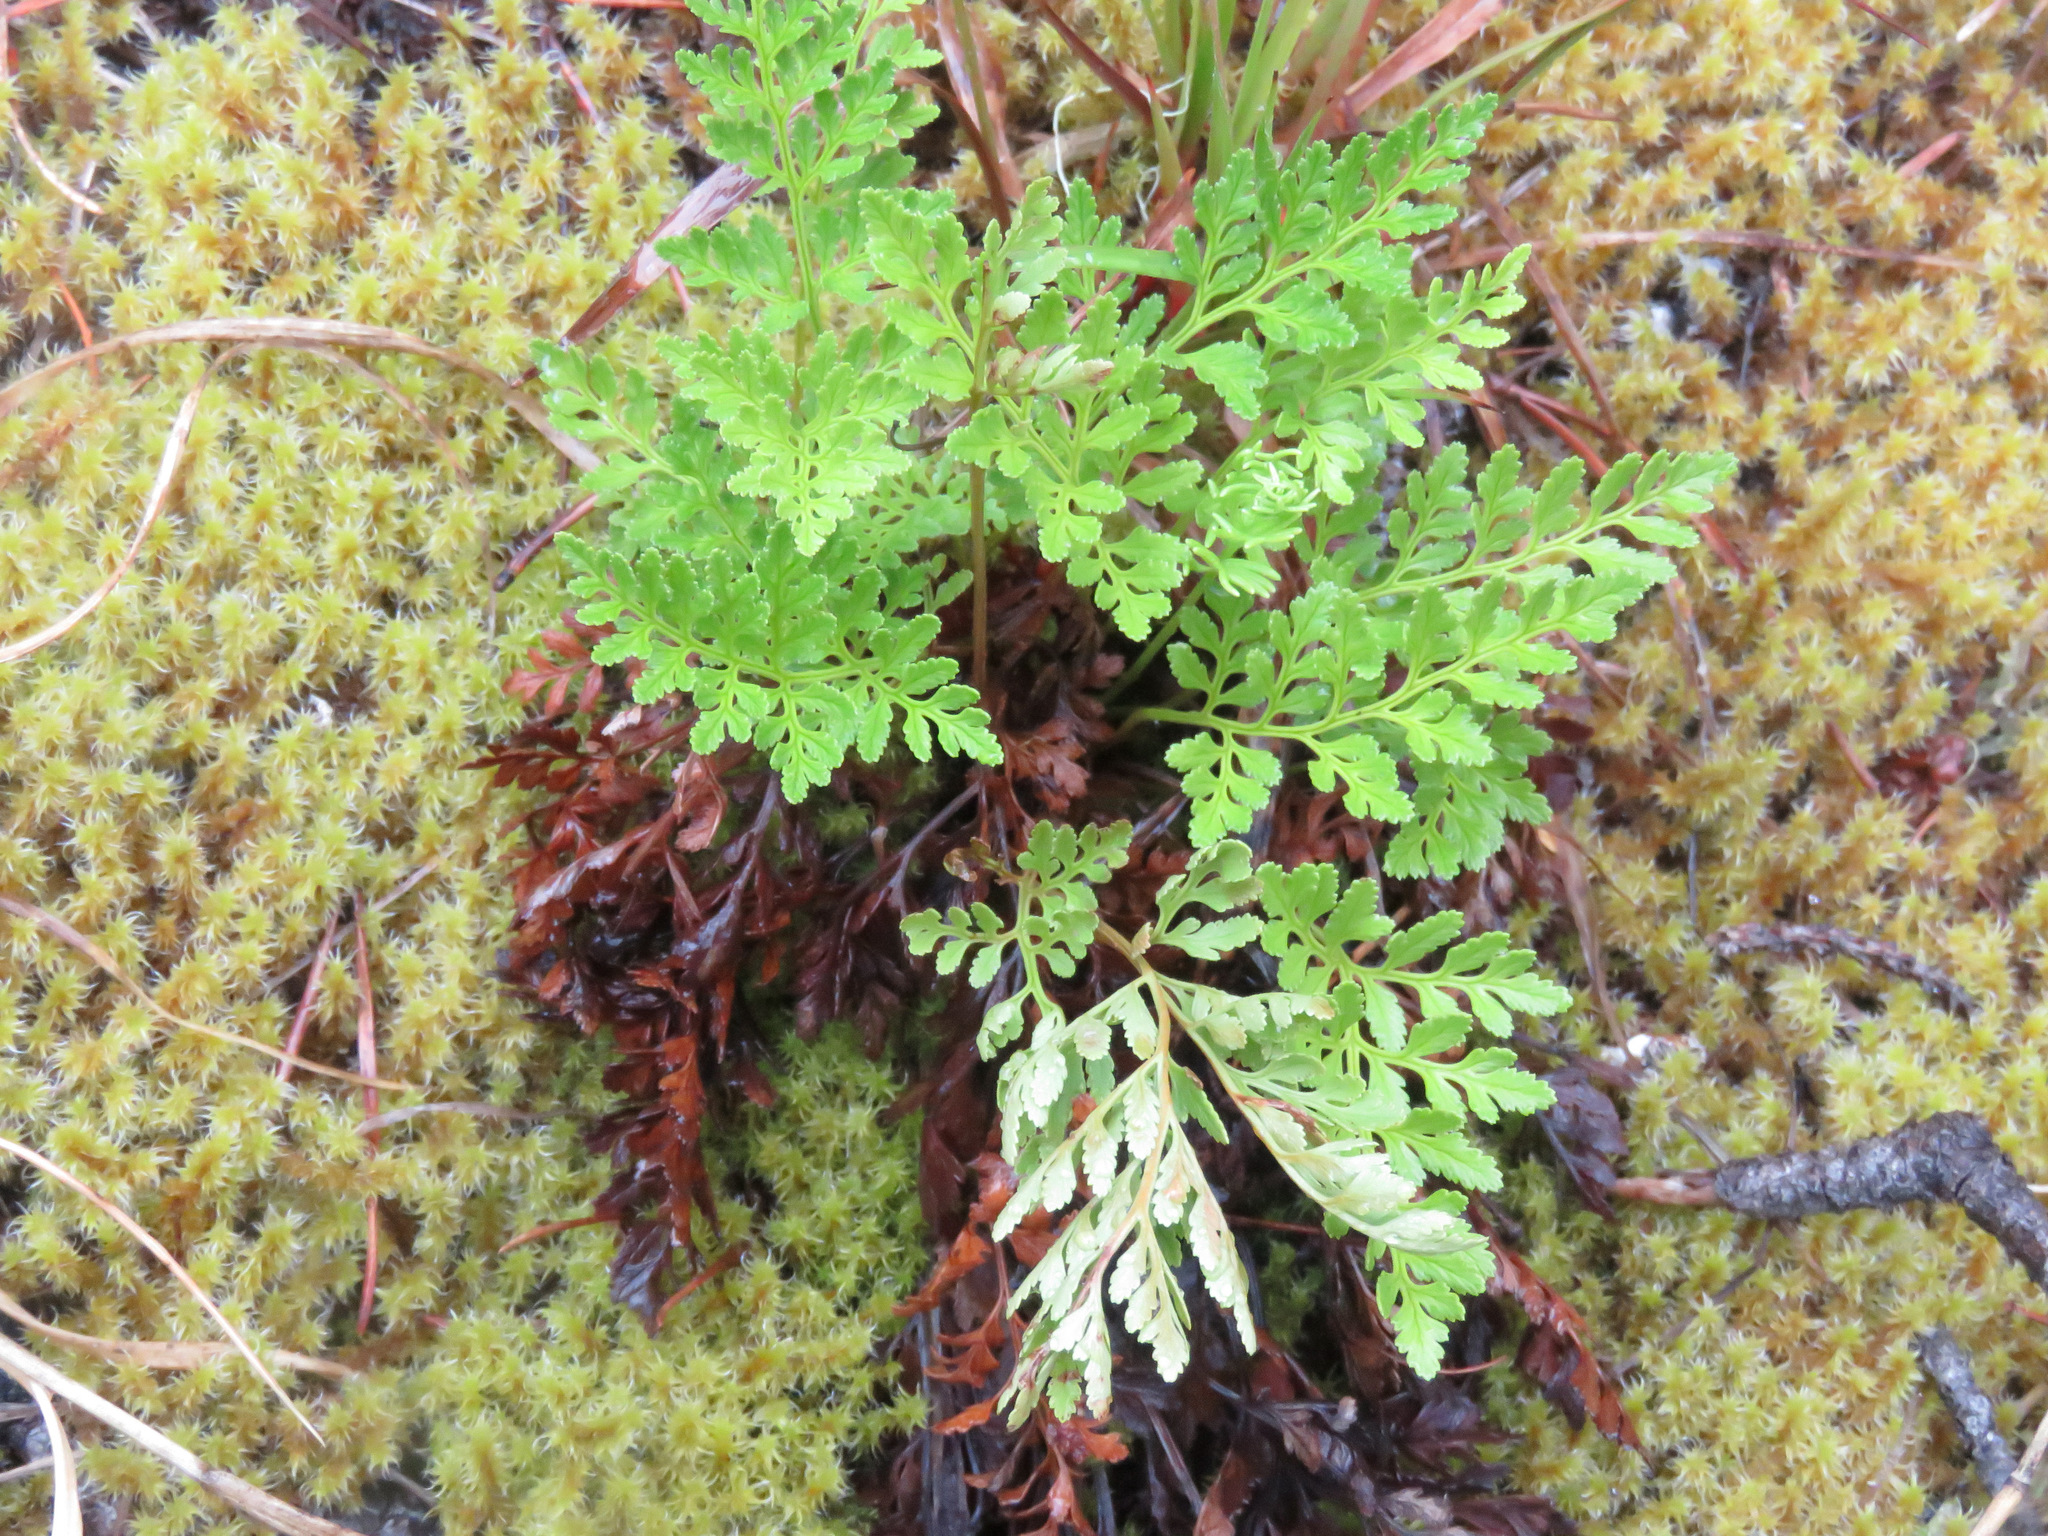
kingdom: Plantae
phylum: Tracheophyta
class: Polypodiopsida
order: Polypodiales
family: Pteridaceae
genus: Cryptogramma
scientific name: Cryptogramma acrostichoides
